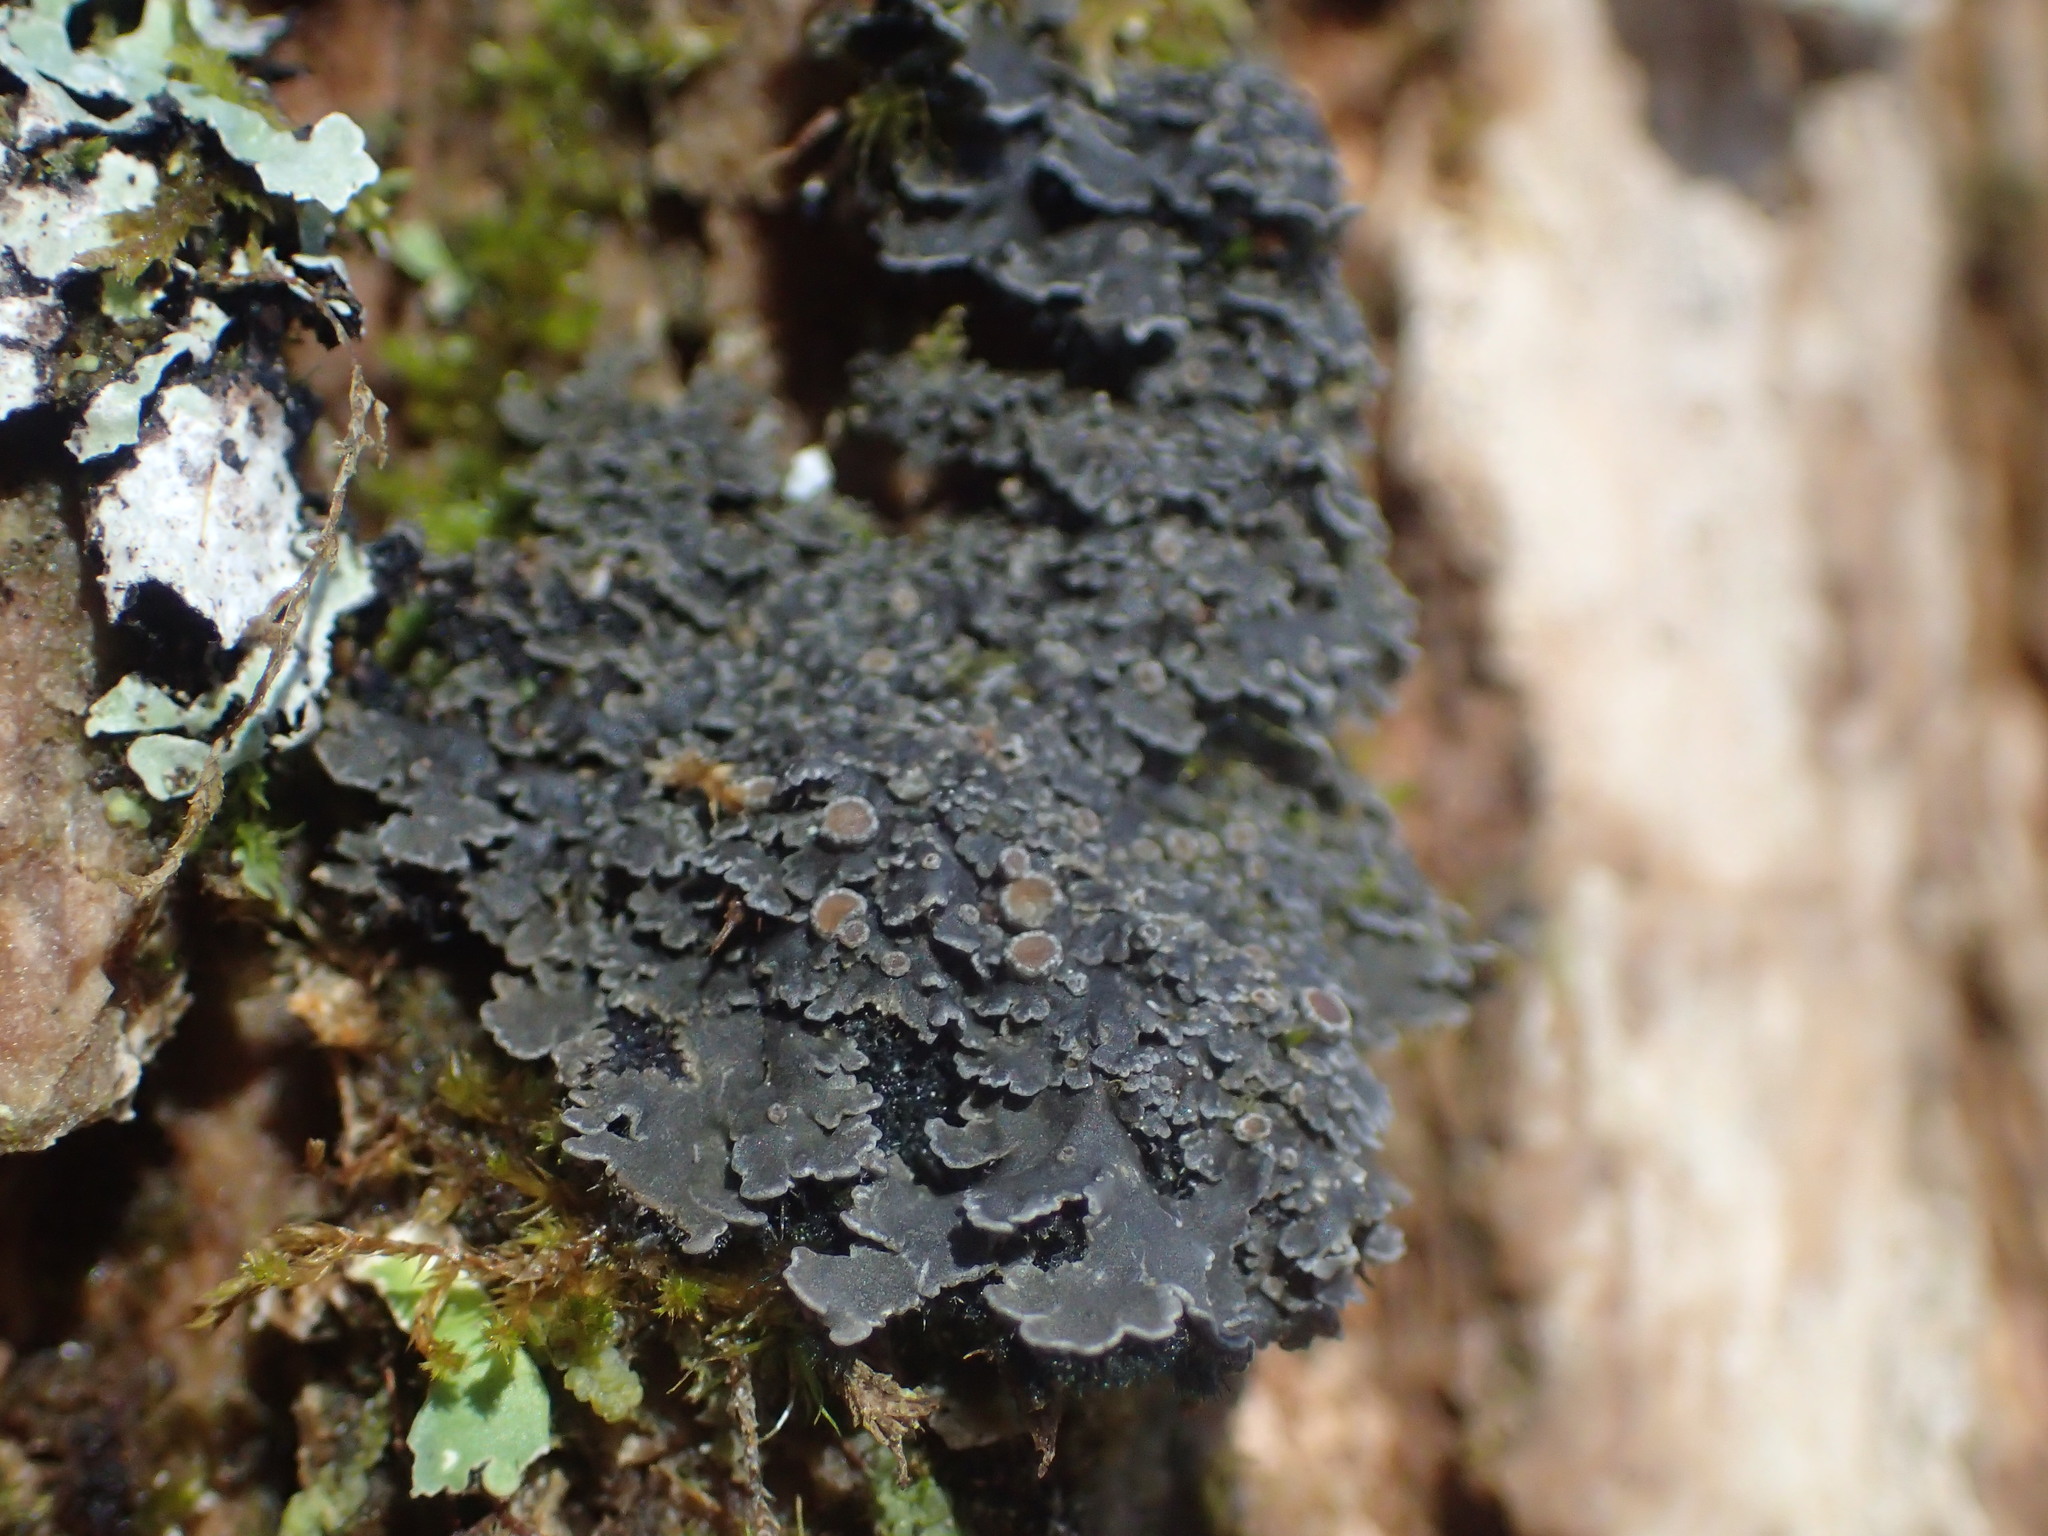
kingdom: Fungi
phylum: Ascomycota
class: Lecanoromycetes
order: Peltigerales
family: Pannariaceae
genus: Pannaria
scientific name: Pannaria rubiginosa
